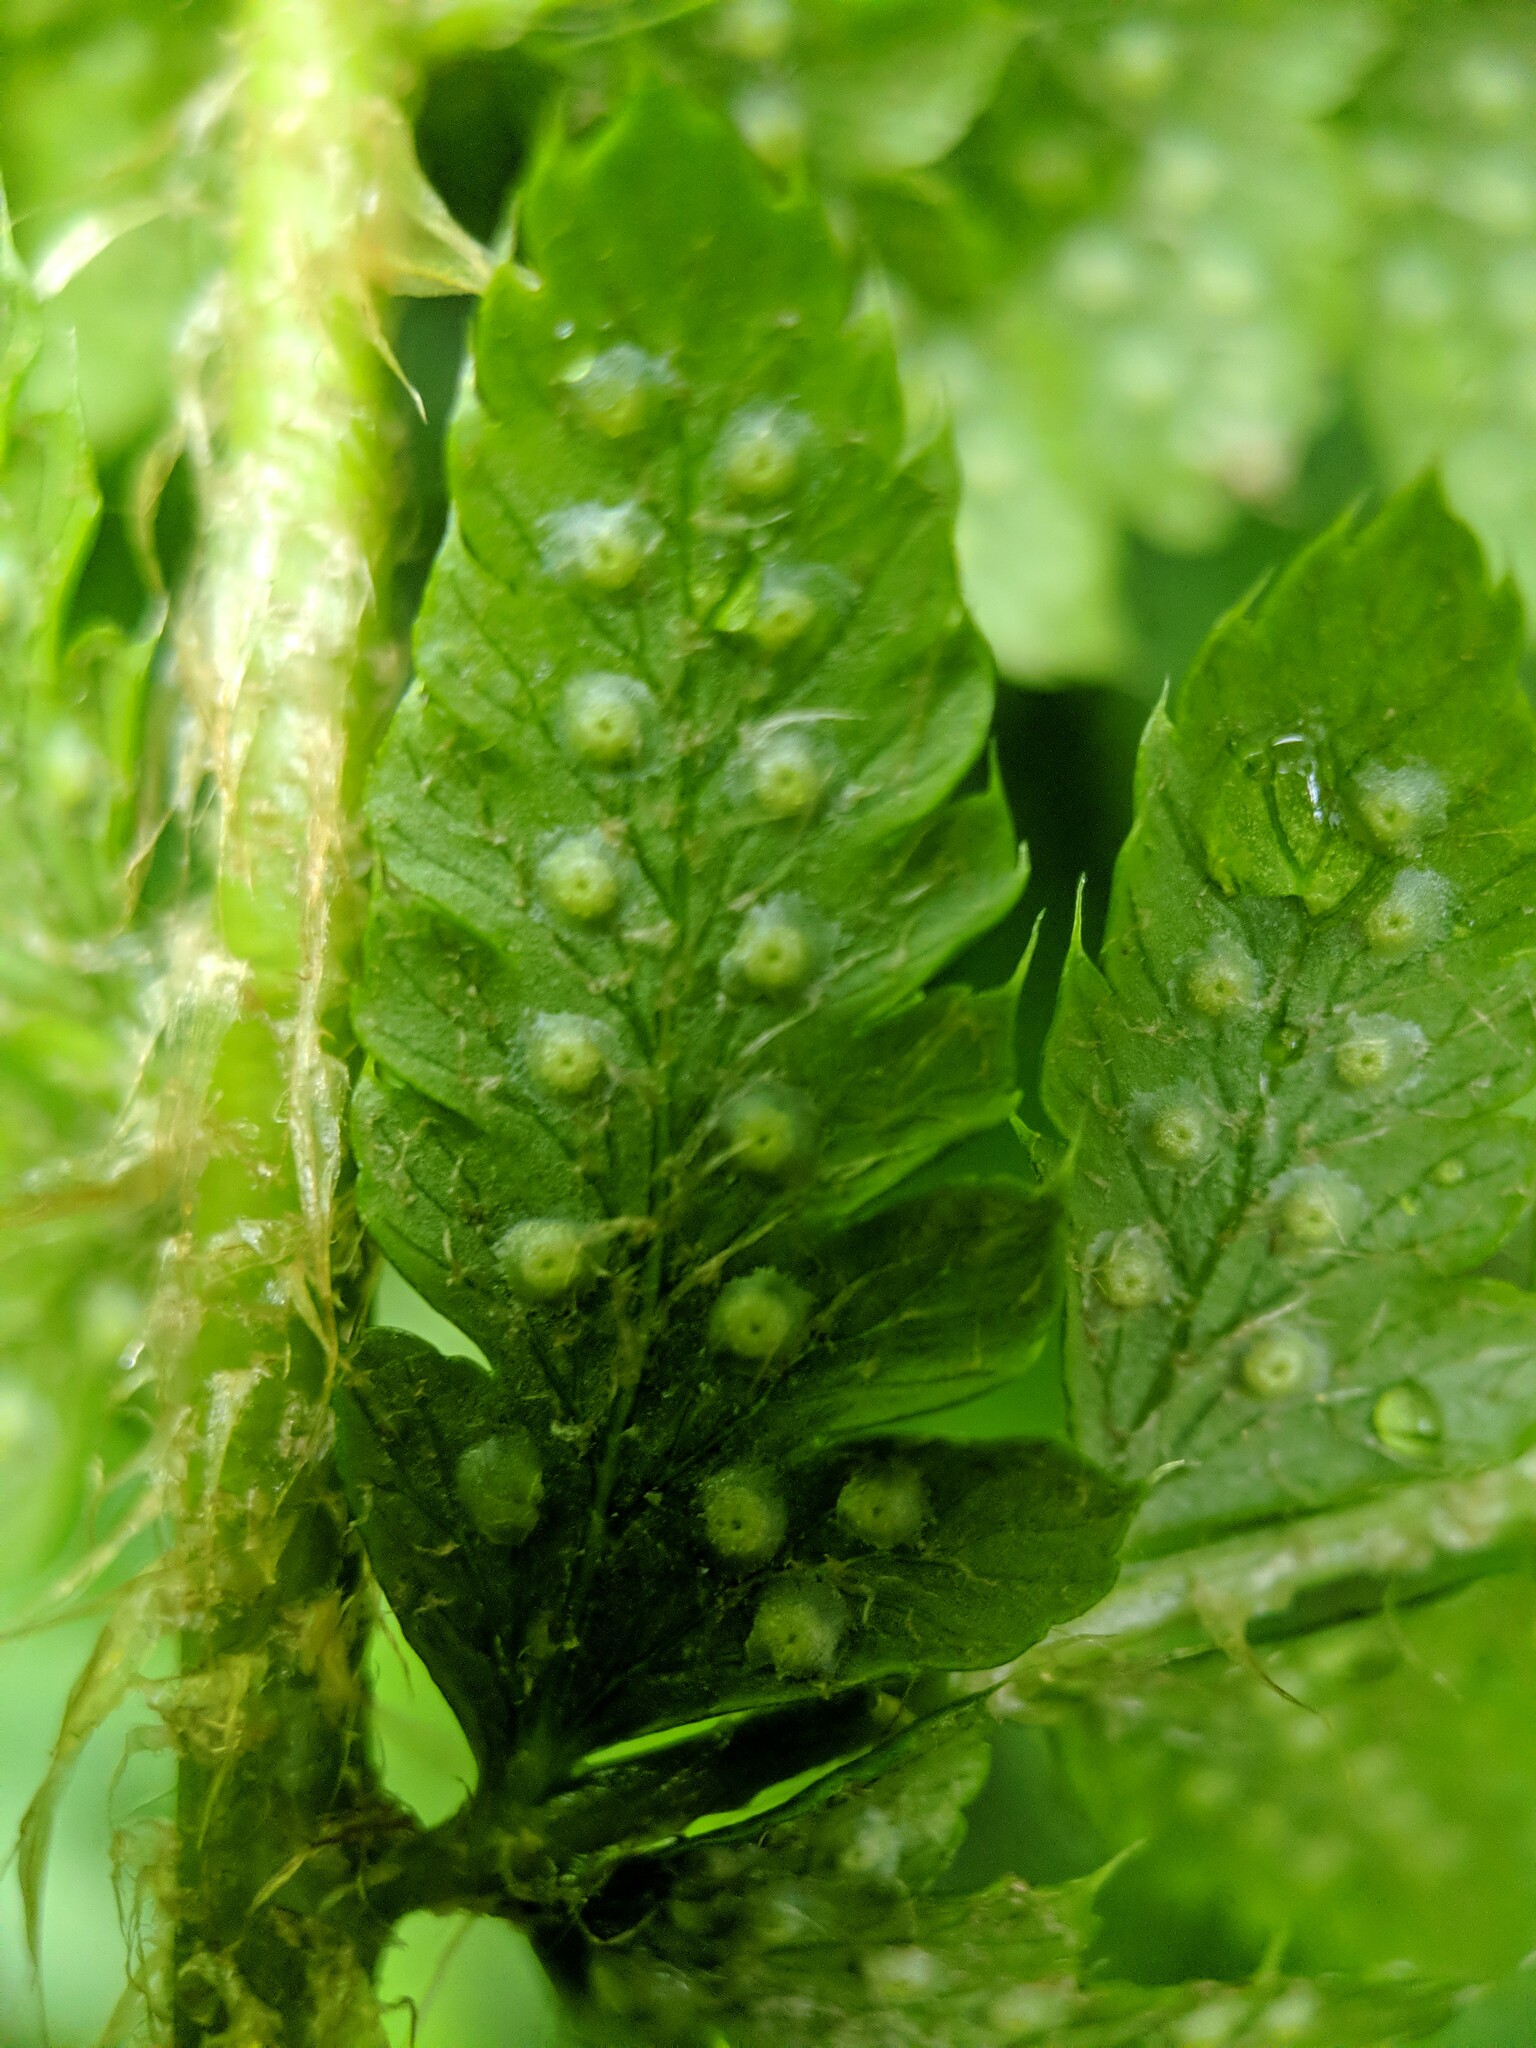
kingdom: Plantae
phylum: Tracheophyta
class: Polypodiopsida
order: Polypodiales
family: Dryopteridaceae
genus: Polystichum
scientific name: Polystichum braunii
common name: Braun's holly fern
